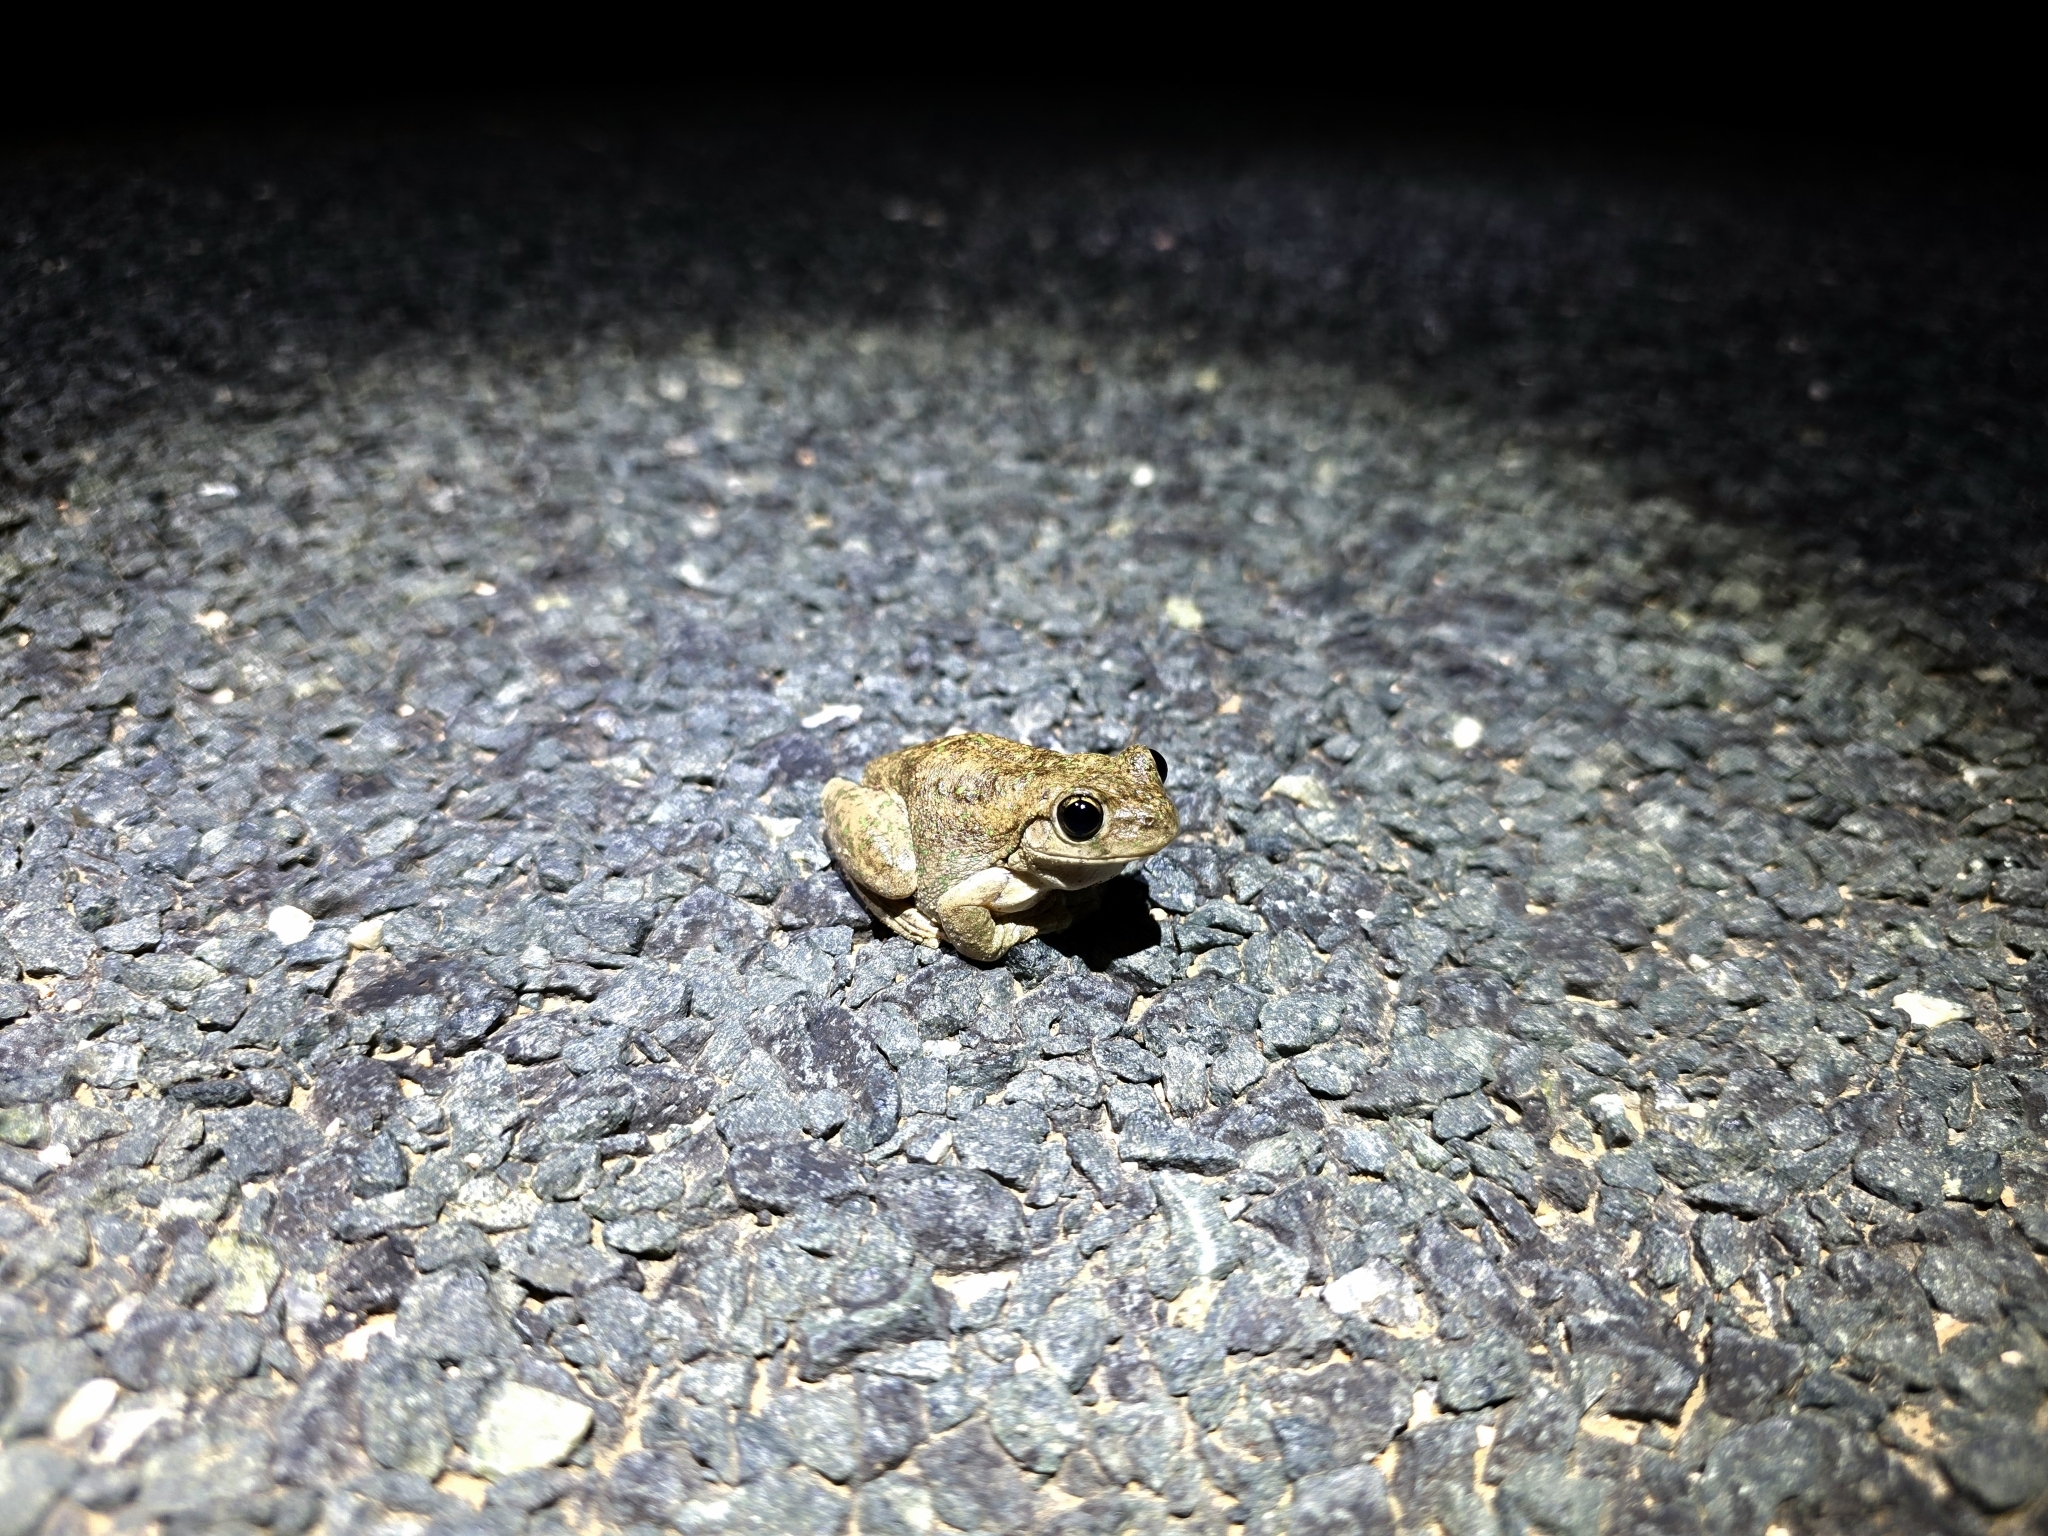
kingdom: Animalia
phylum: Chordata
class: Amphibia
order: Anura
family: Pelodryadidae
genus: Litoria
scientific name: Litoria peronii
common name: Emerald spotted treefrog
